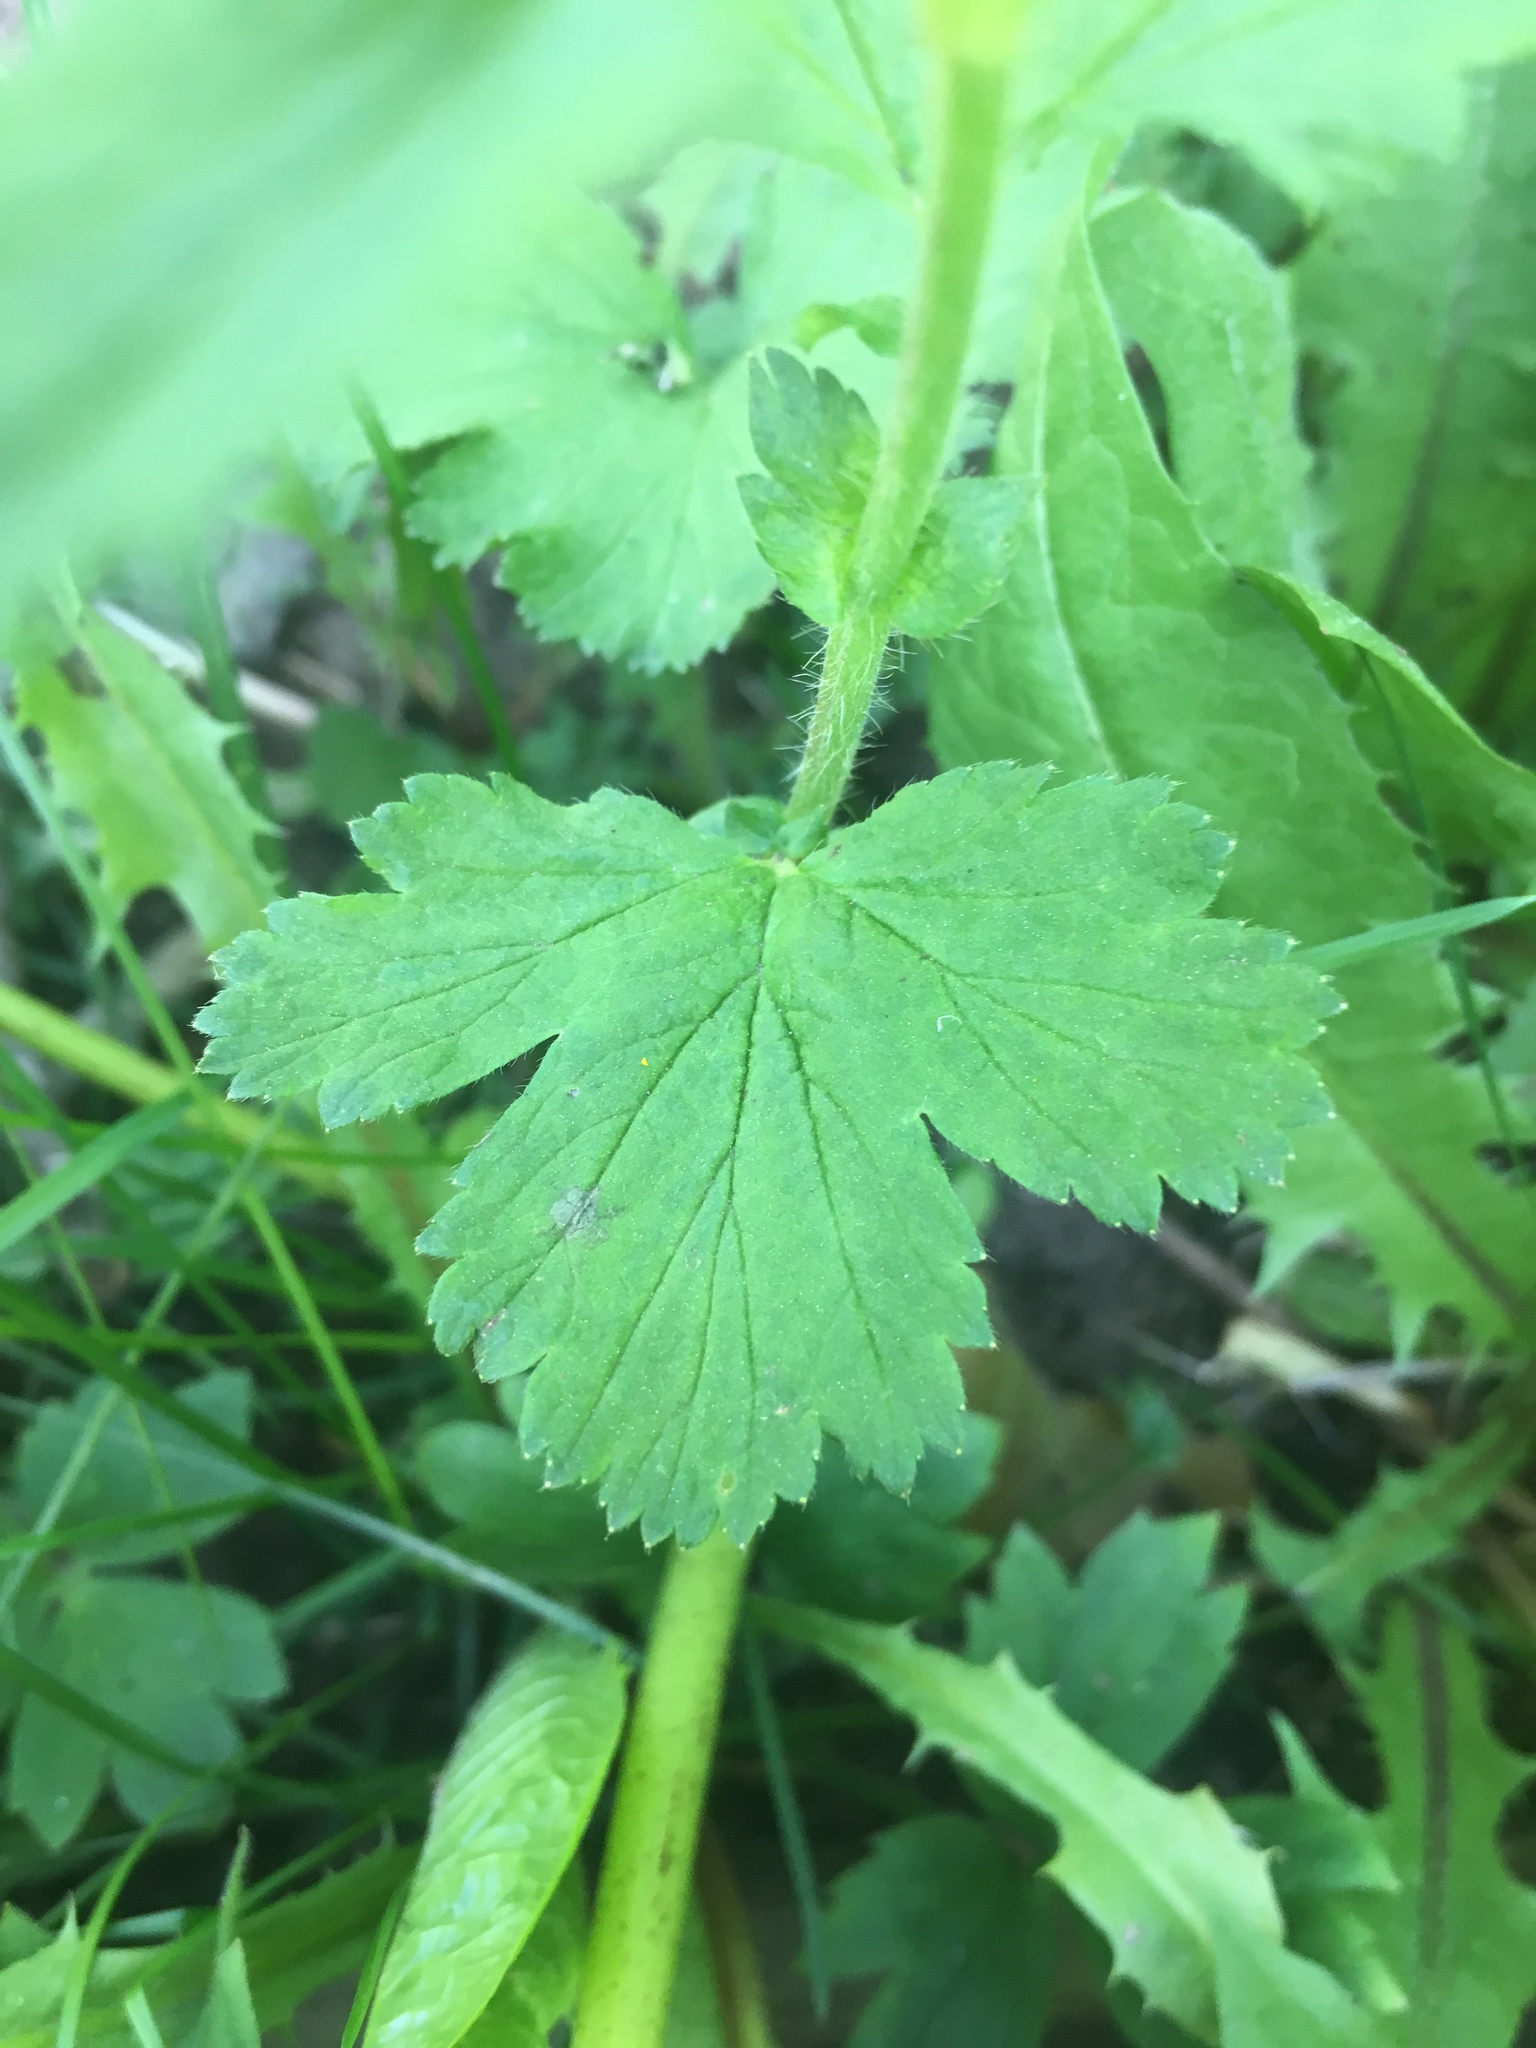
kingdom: Plantae
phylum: Tracheophyta
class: Magnoliopsida
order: Rosales
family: Rosaceae
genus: Geum
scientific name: Geum macrophyllum
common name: Large-leaved avens
